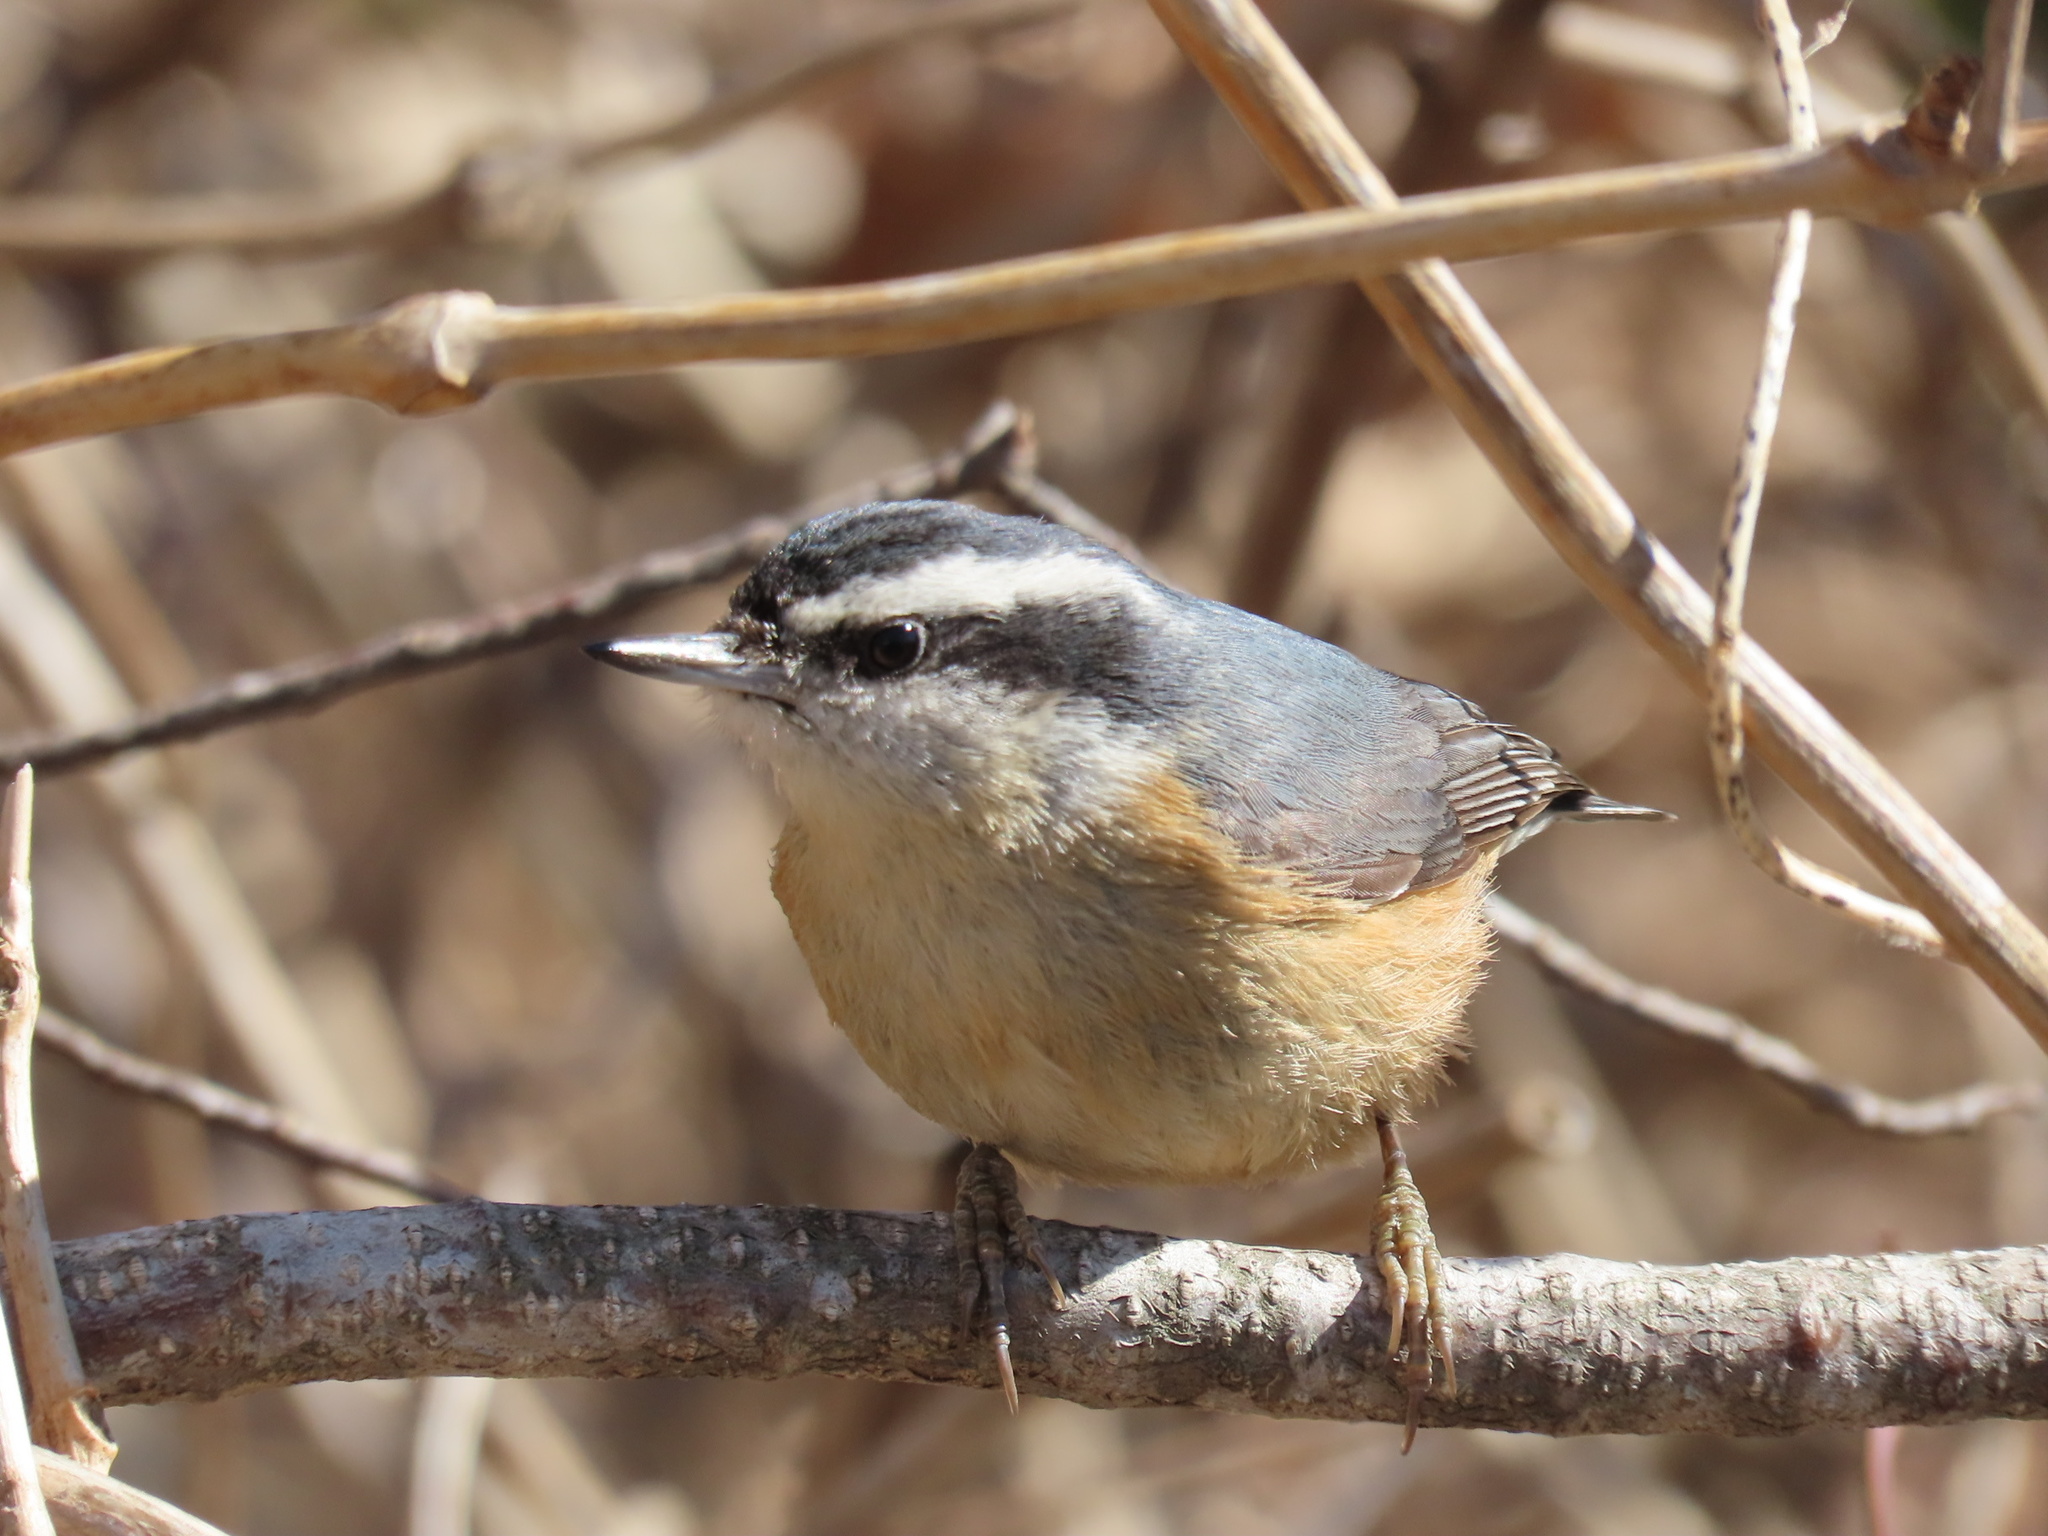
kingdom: Animalia
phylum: Chordata
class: Aves
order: Passeriformes
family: Sittidae
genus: Sitta
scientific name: Sitta canadensis
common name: Red-breasted nuthatch
